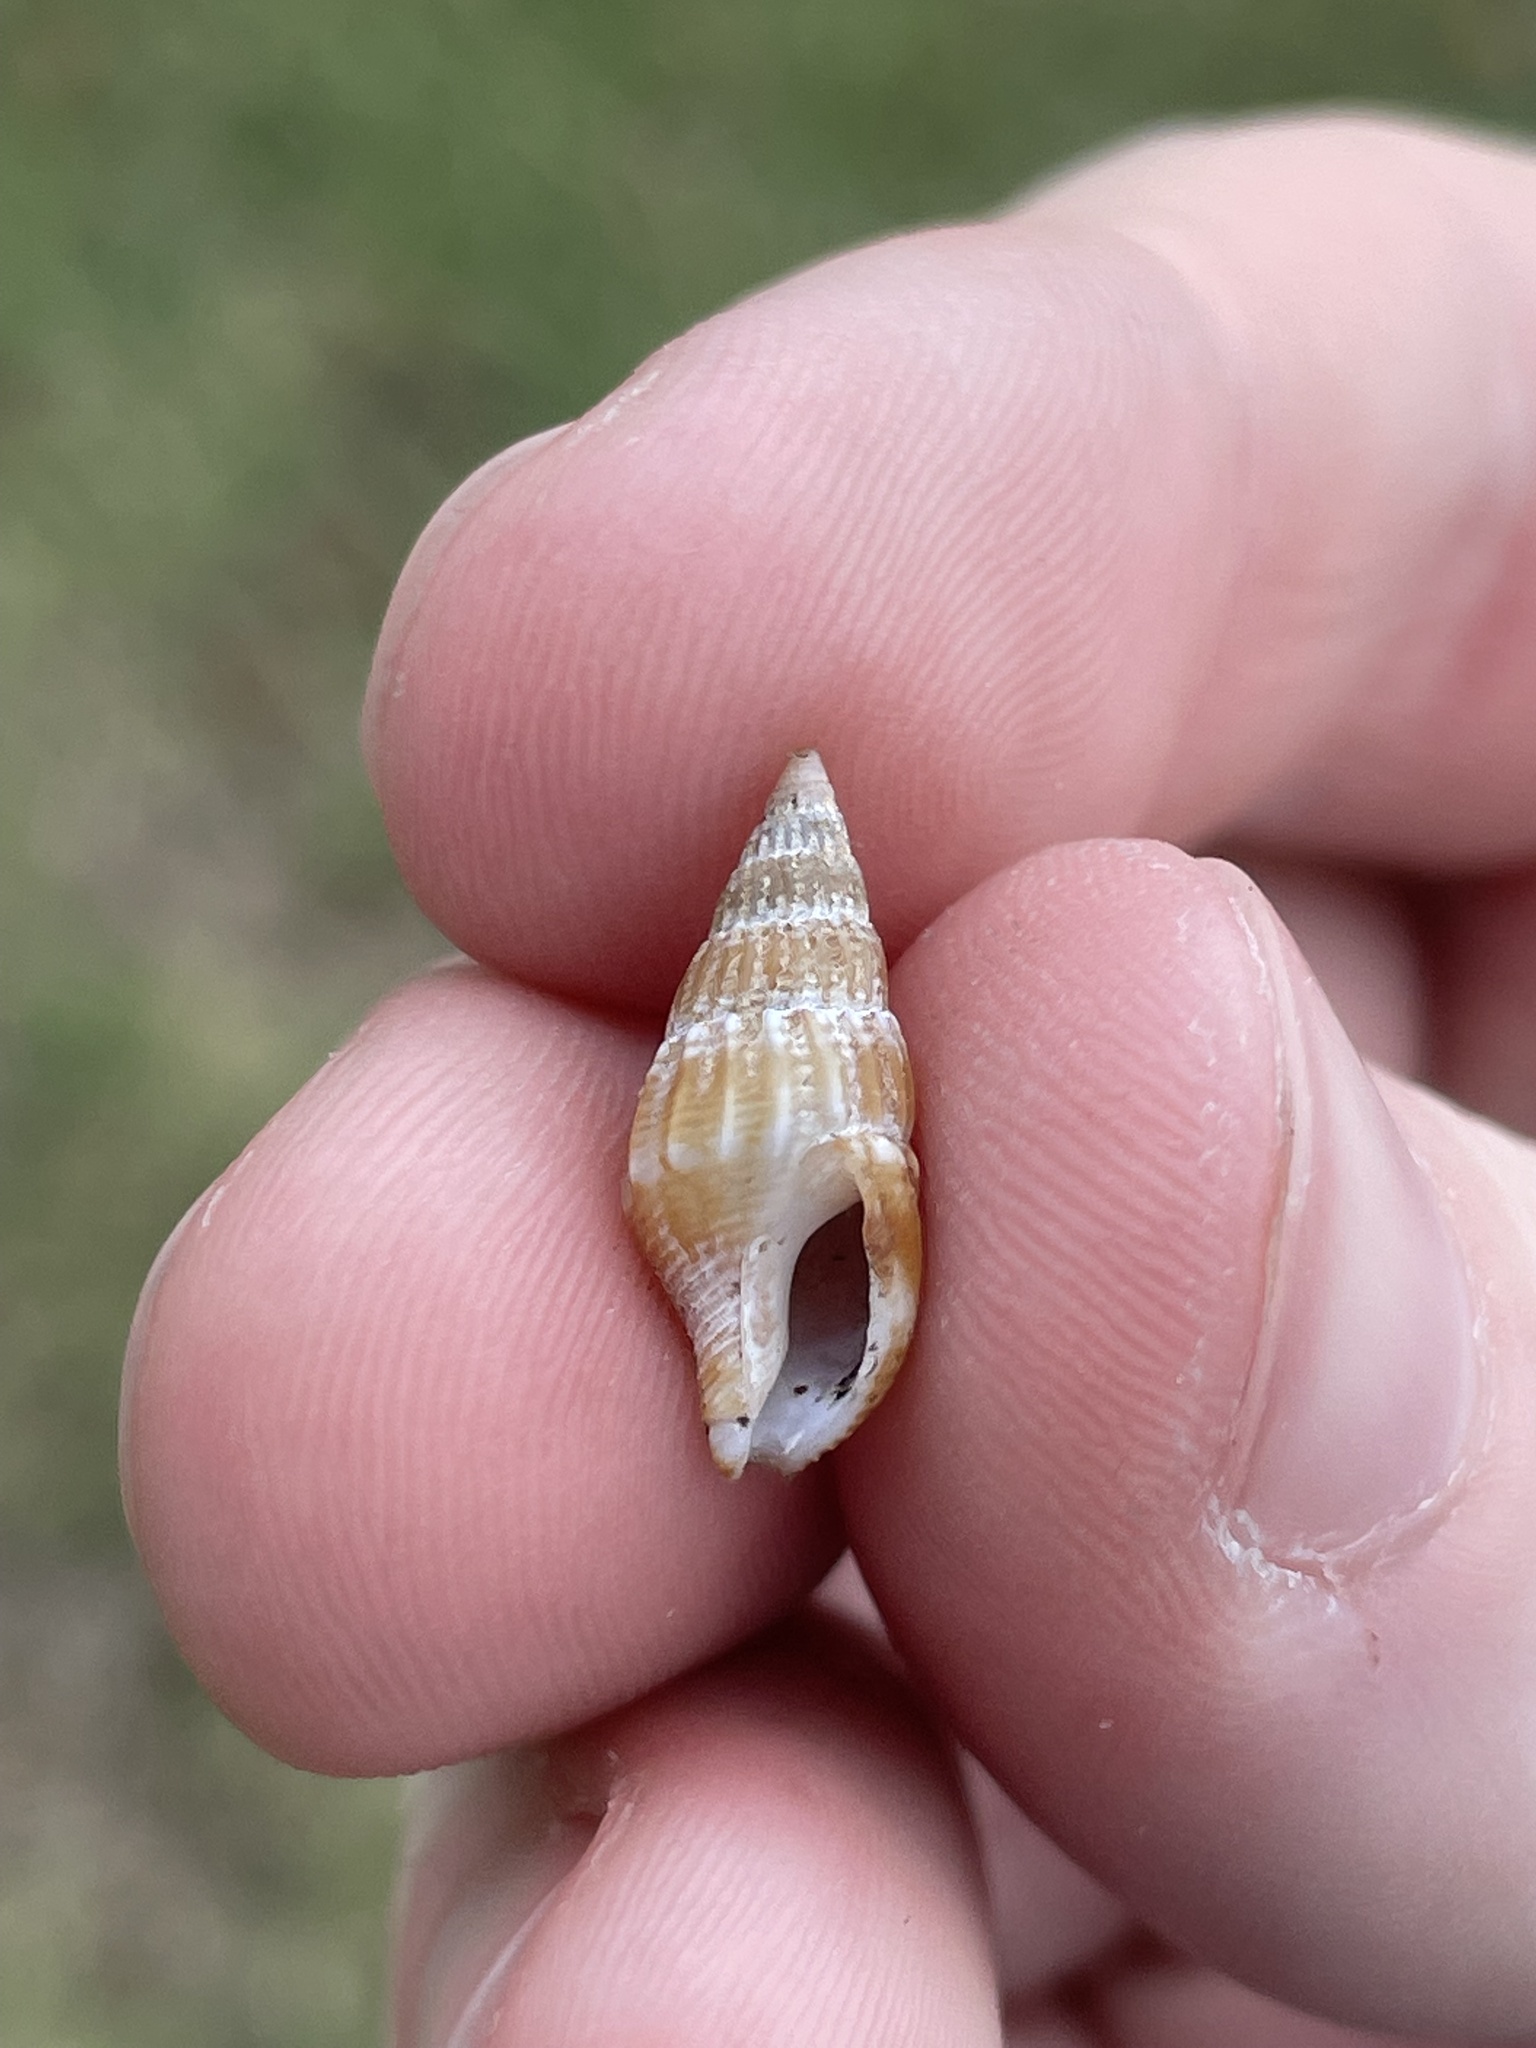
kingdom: Animalia
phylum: Mollusca
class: Gastropoda
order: Neogastropoda
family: Columbellidae
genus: Costoanachis
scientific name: Costoanachis translirata
